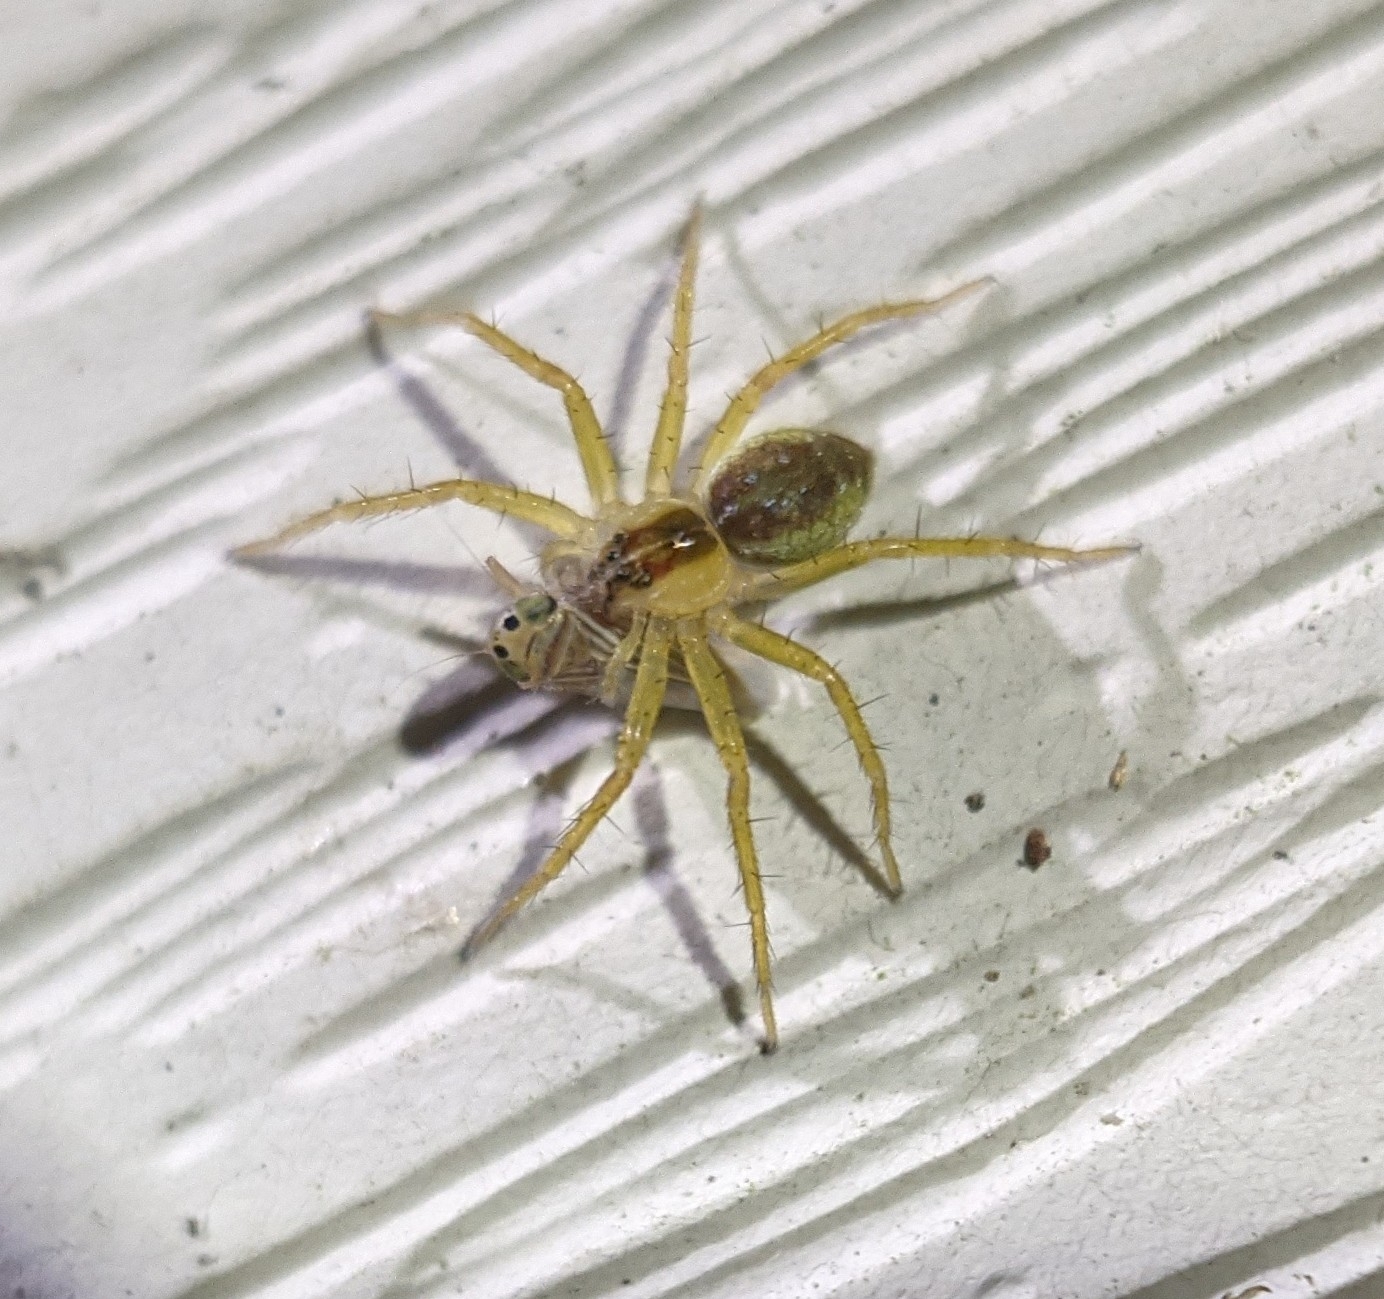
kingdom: Animalia
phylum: Arthropoda
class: Insecta
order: Hemiptera
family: Cicadellidae
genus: Graminella
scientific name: Graminella villicus
